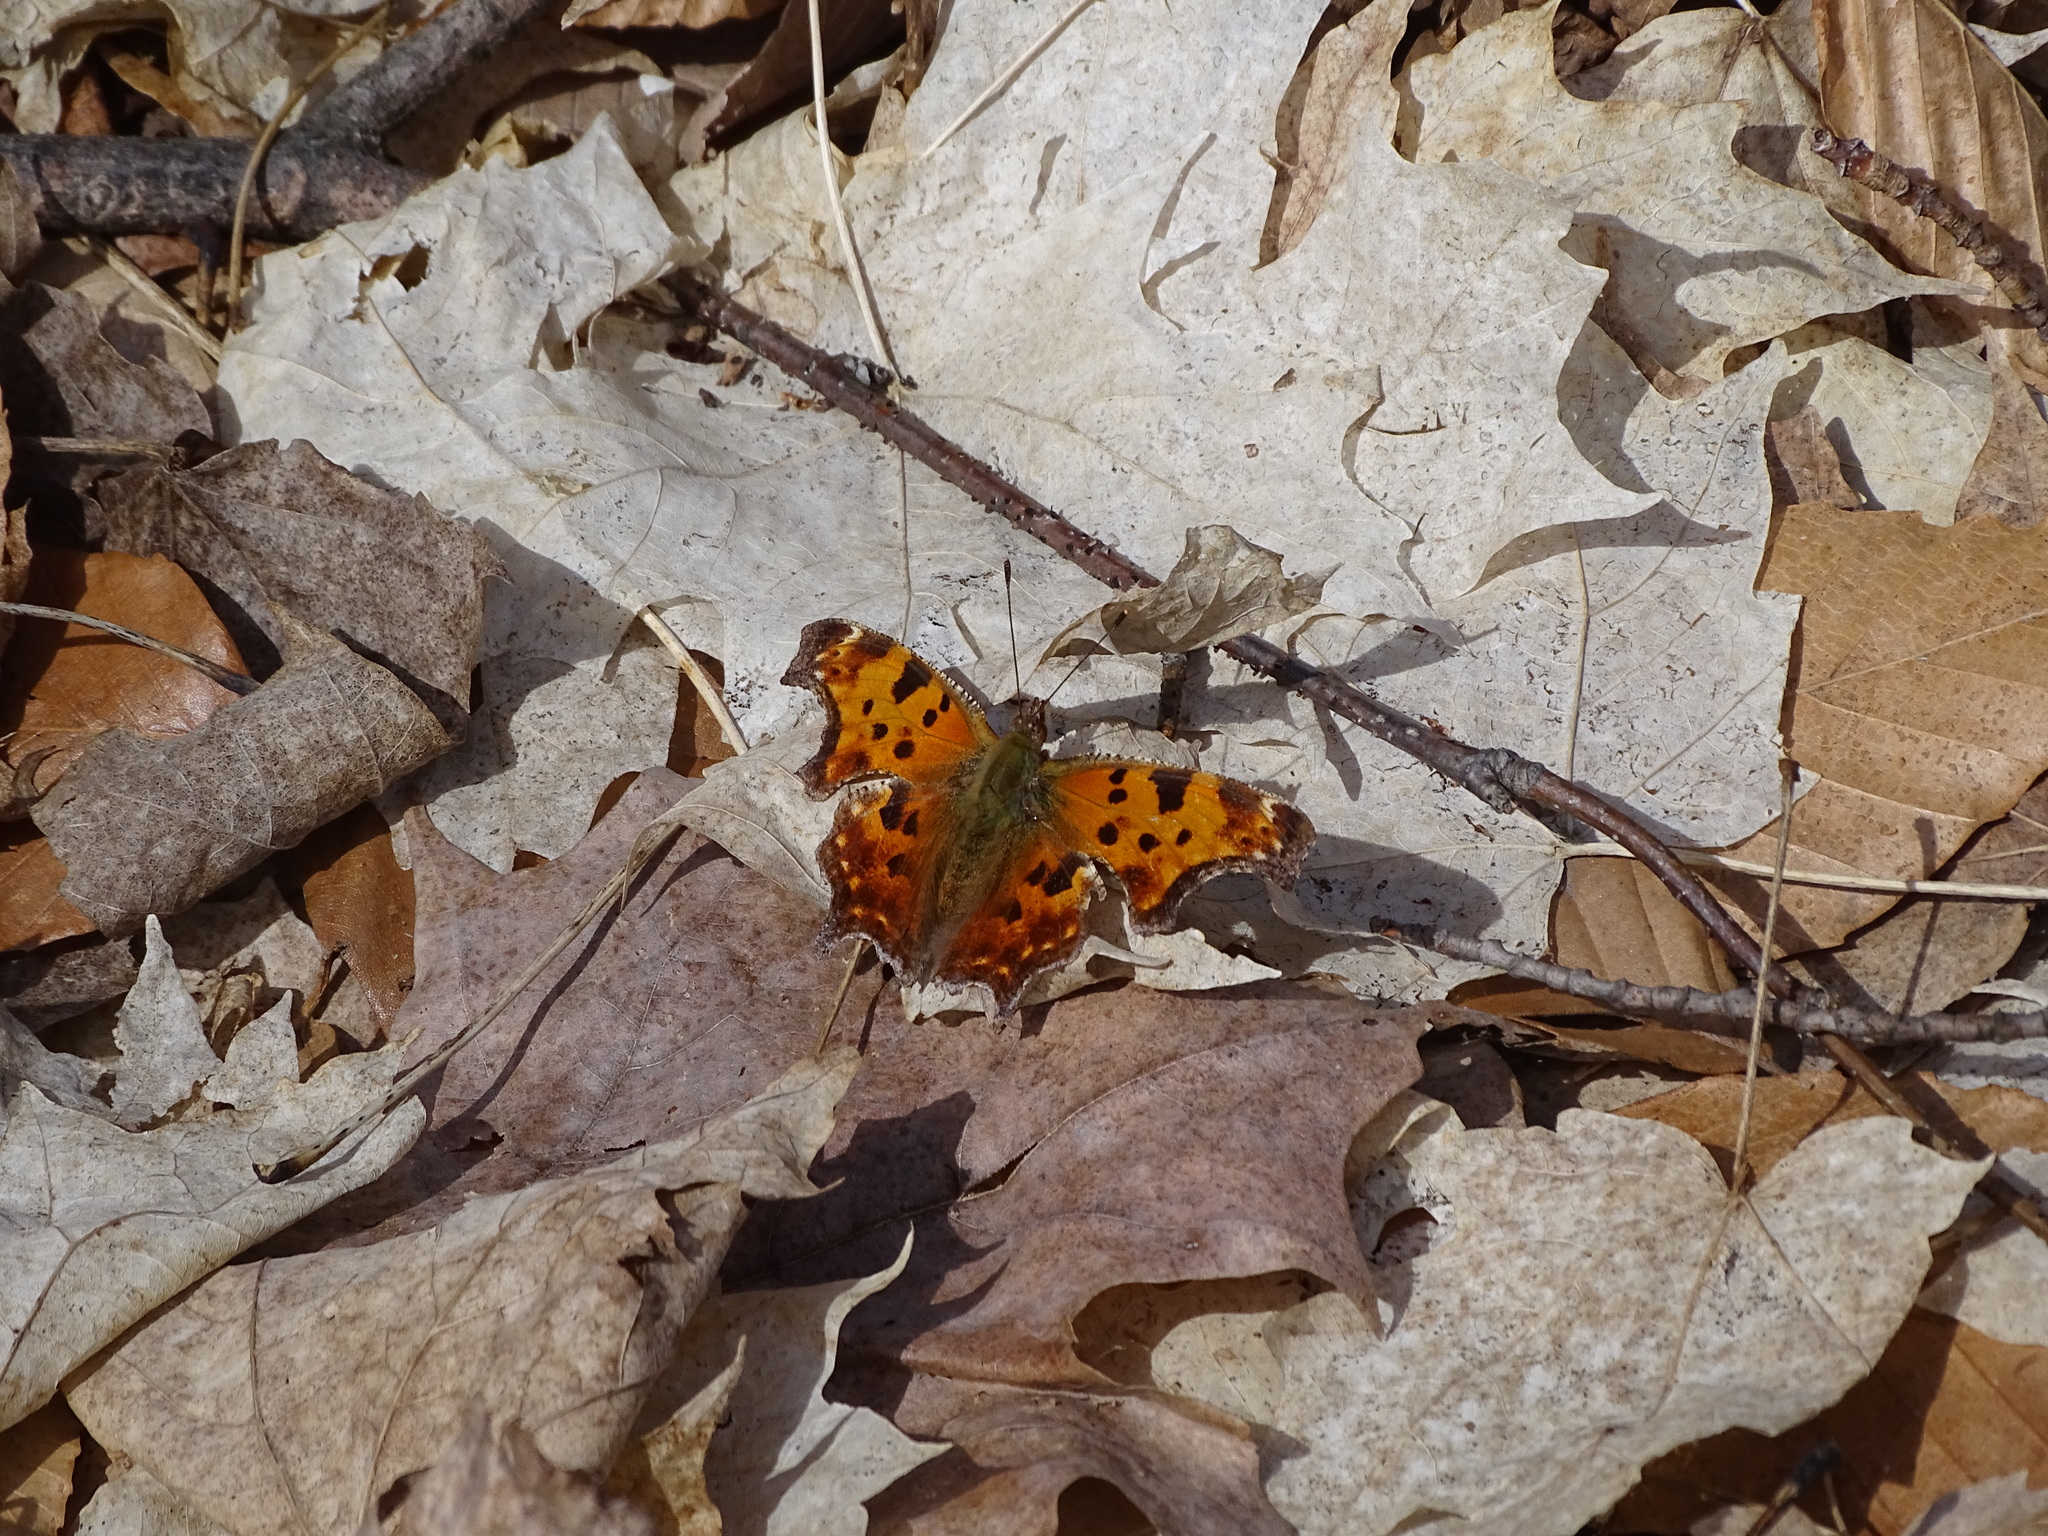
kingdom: Animalia
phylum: Arthropoda
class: Insecta
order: Lepidoptera
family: Nymphalidae
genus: Polygonia
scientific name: Polygonia comma
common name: Eastern comma
